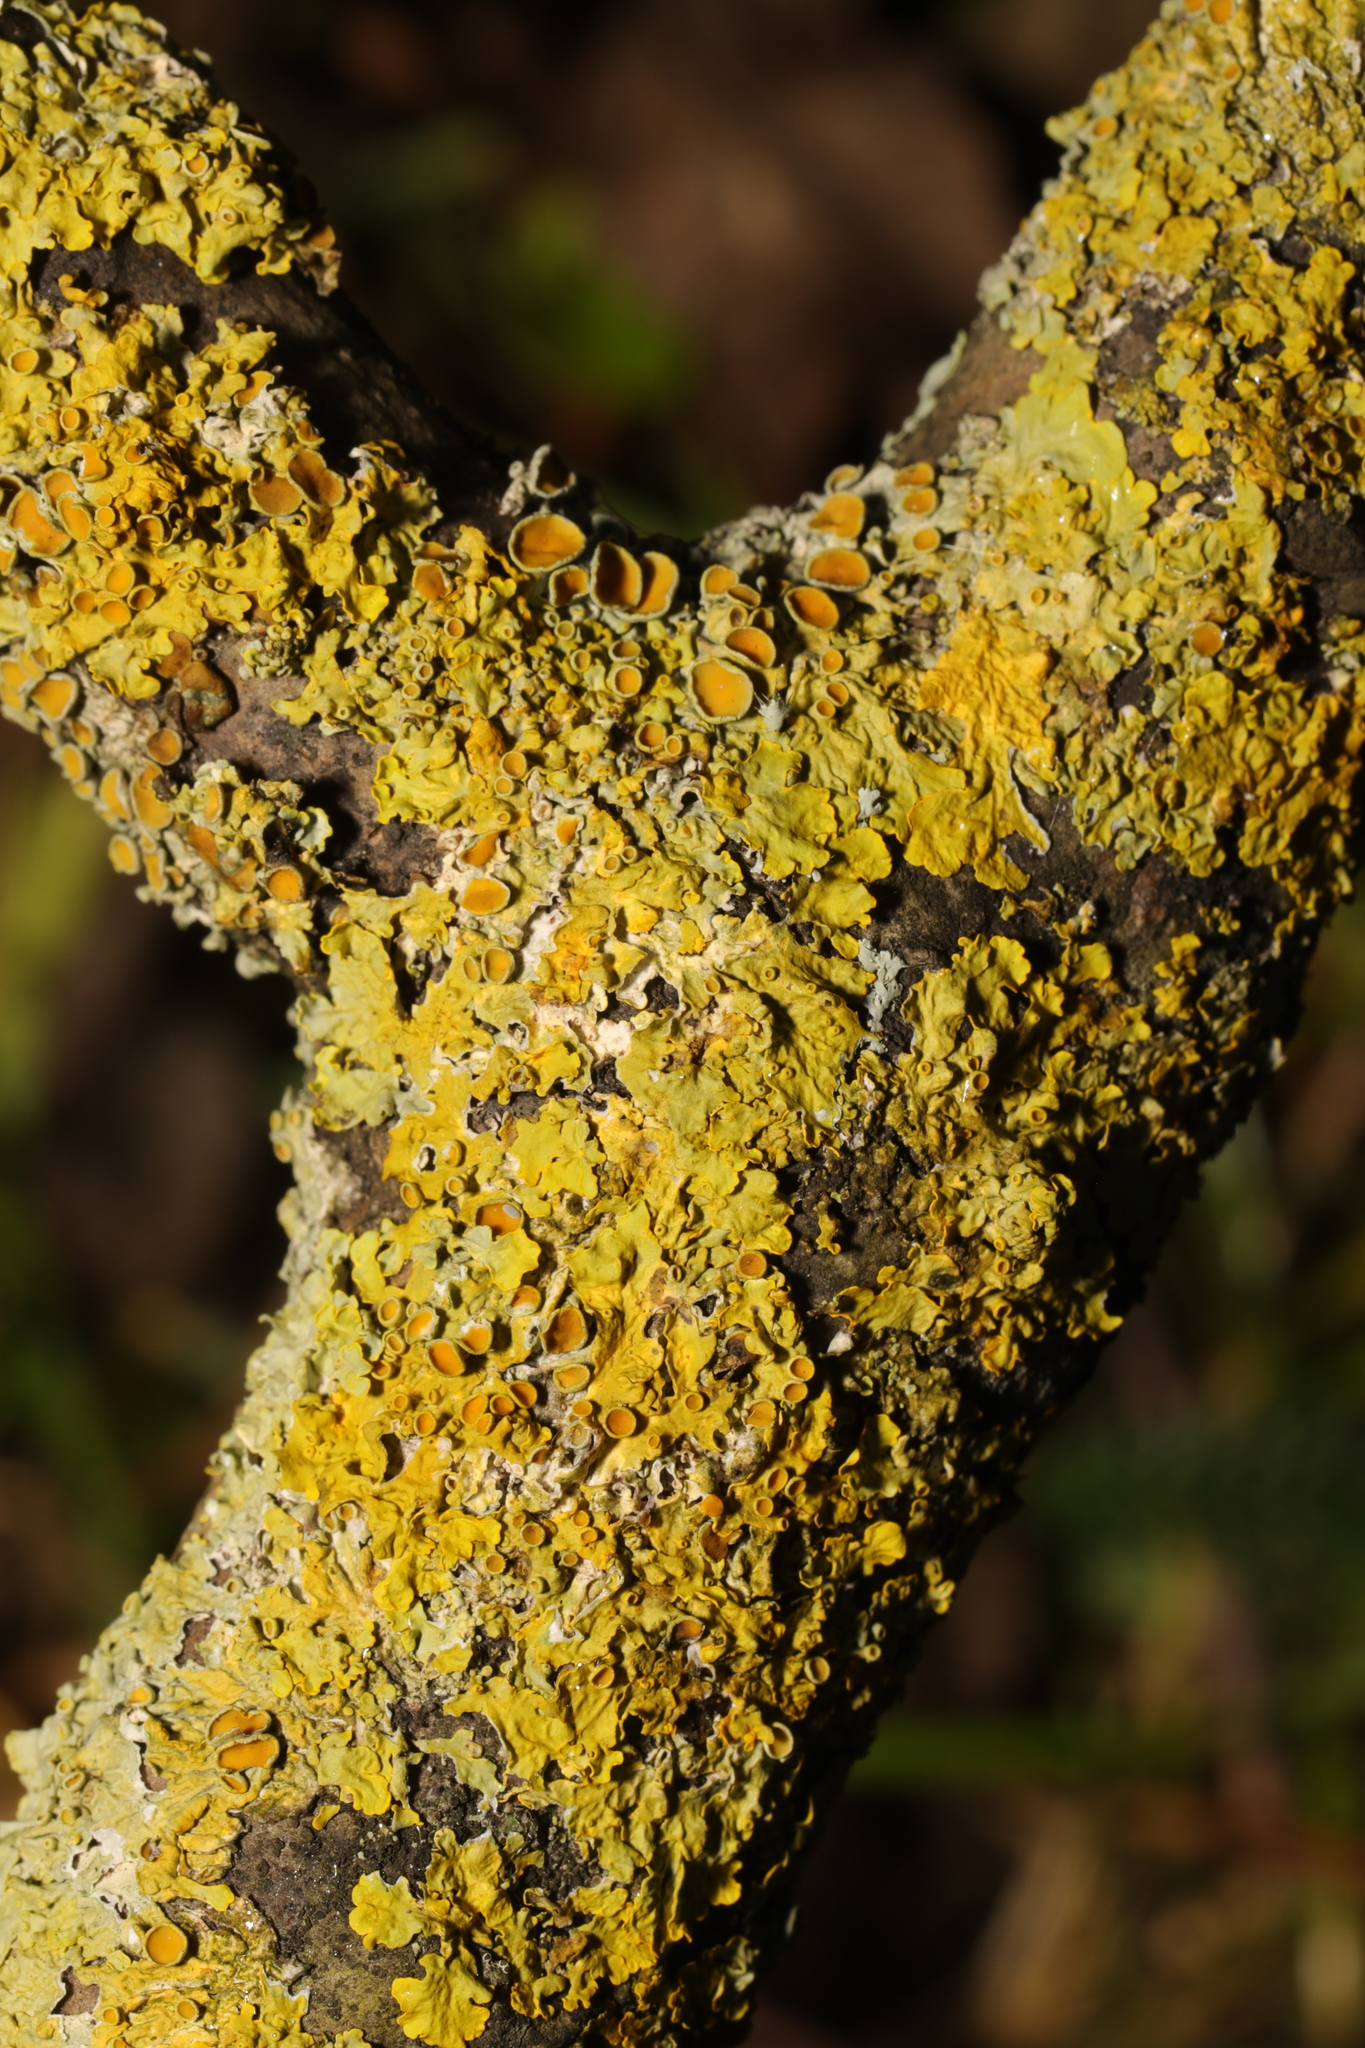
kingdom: Fungi
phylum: Ascomycota
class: Lecanoromycetes
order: Teloschistales
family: Teloschistaceae
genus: Xanthoria
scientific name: Xanthoria parietina
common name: Common orange lichen
